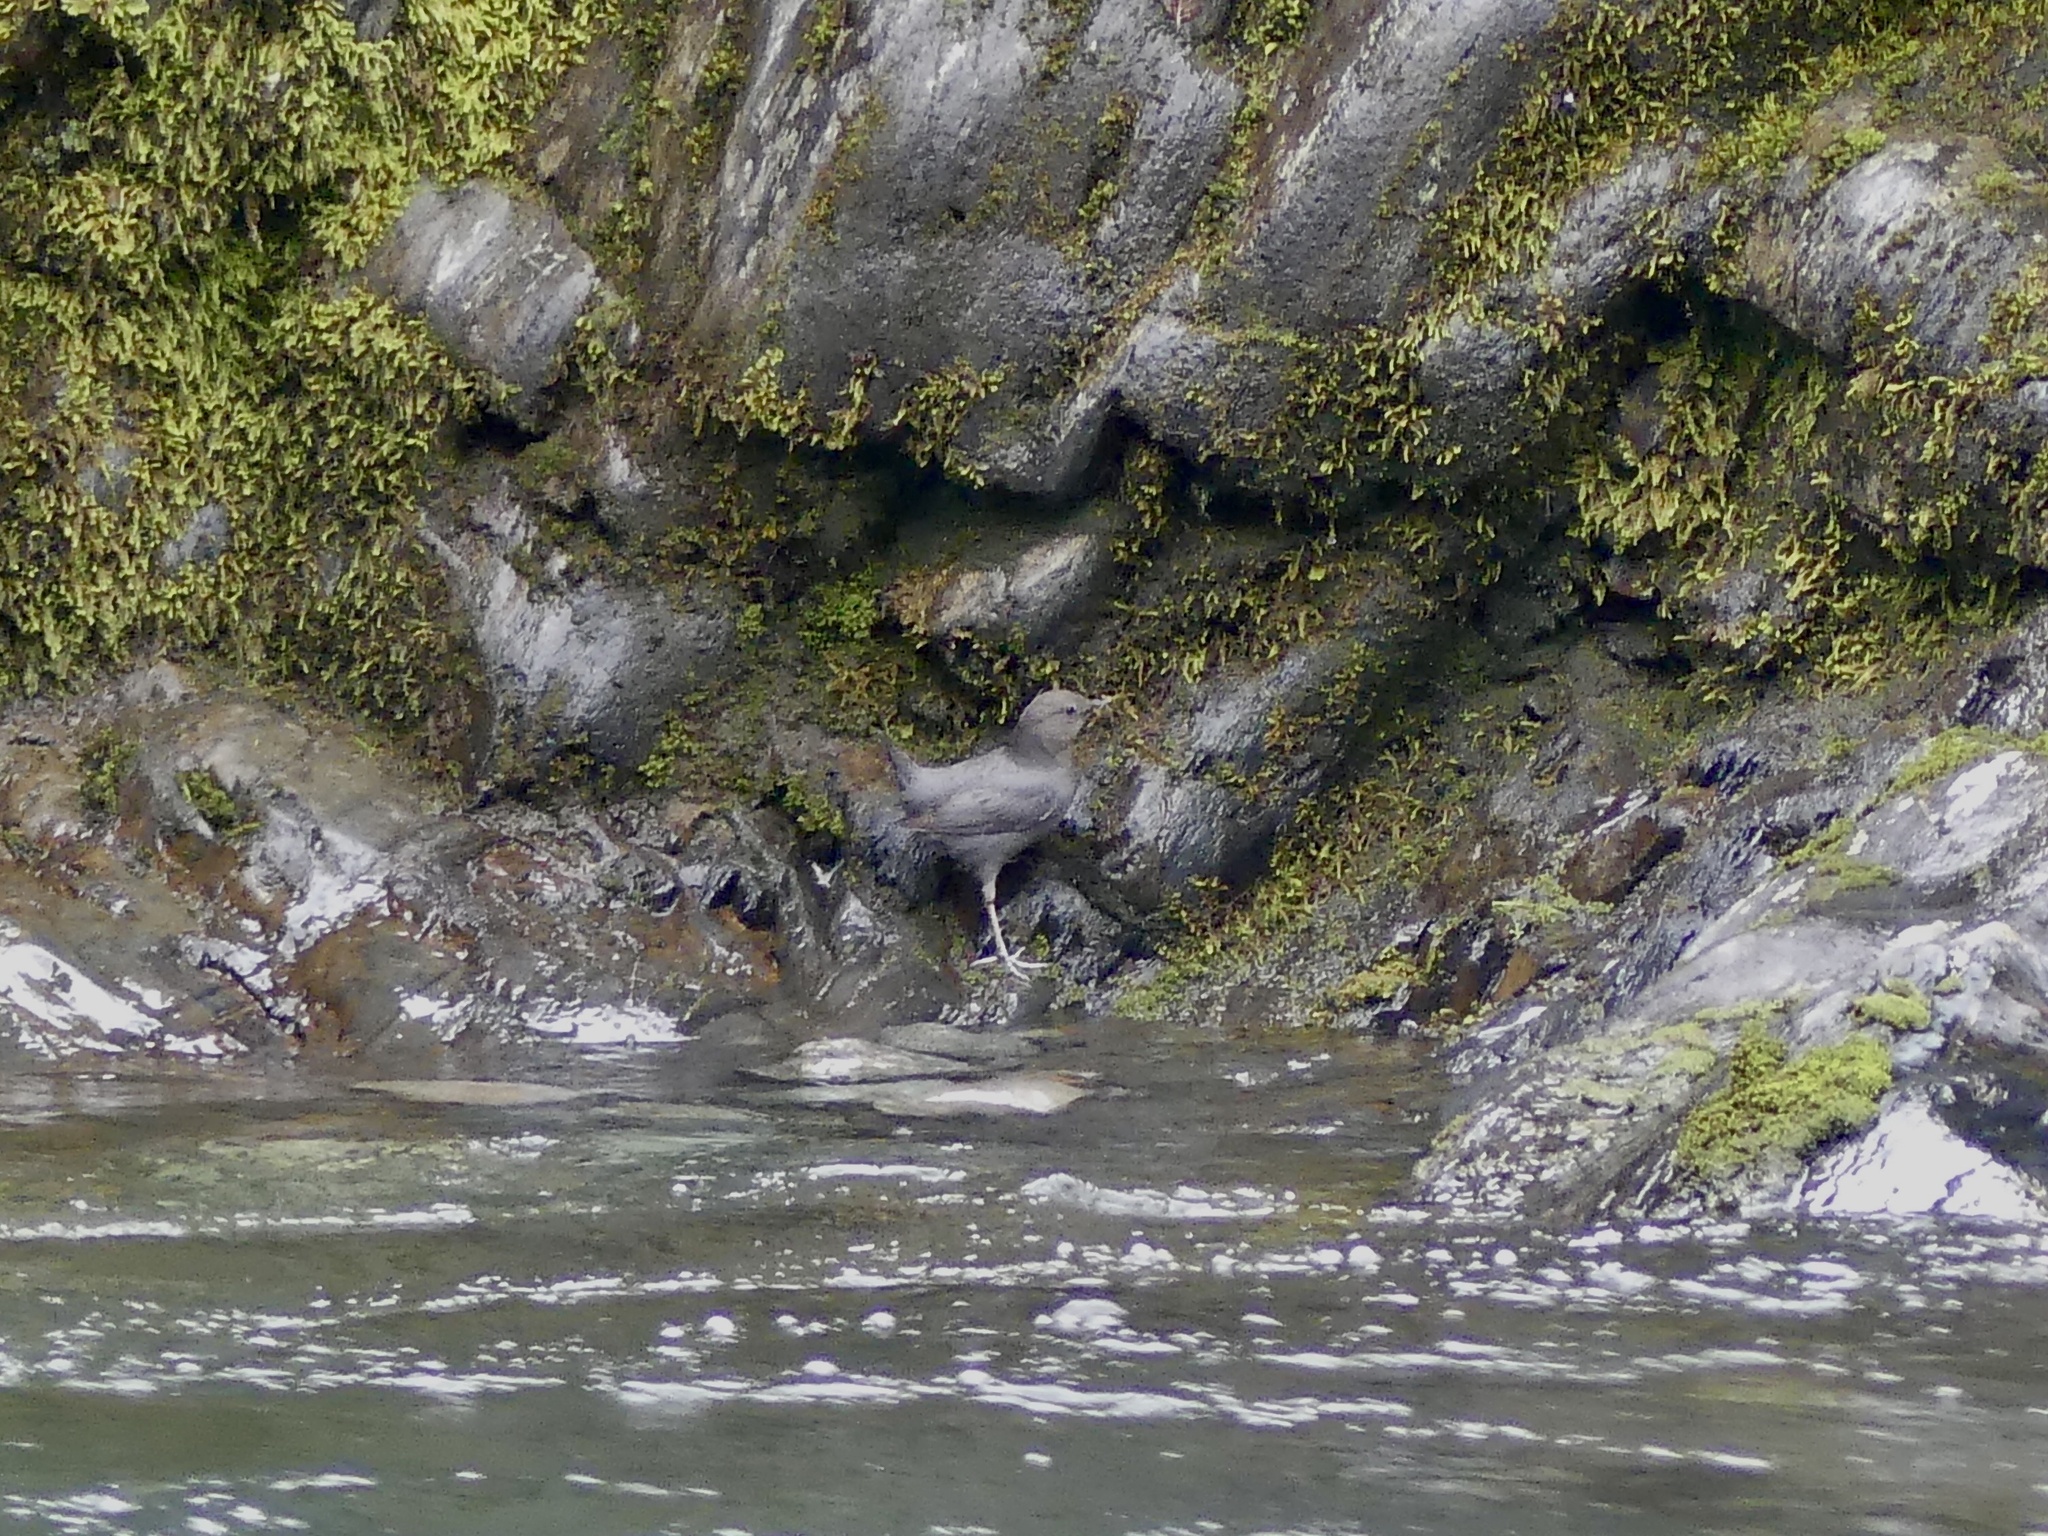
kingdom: Animalia
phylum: Chordata
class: Aves
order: Passeriformes
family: Cinclidae
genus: Cinclus
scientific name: Cinclus mexicanus
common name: American dipper
